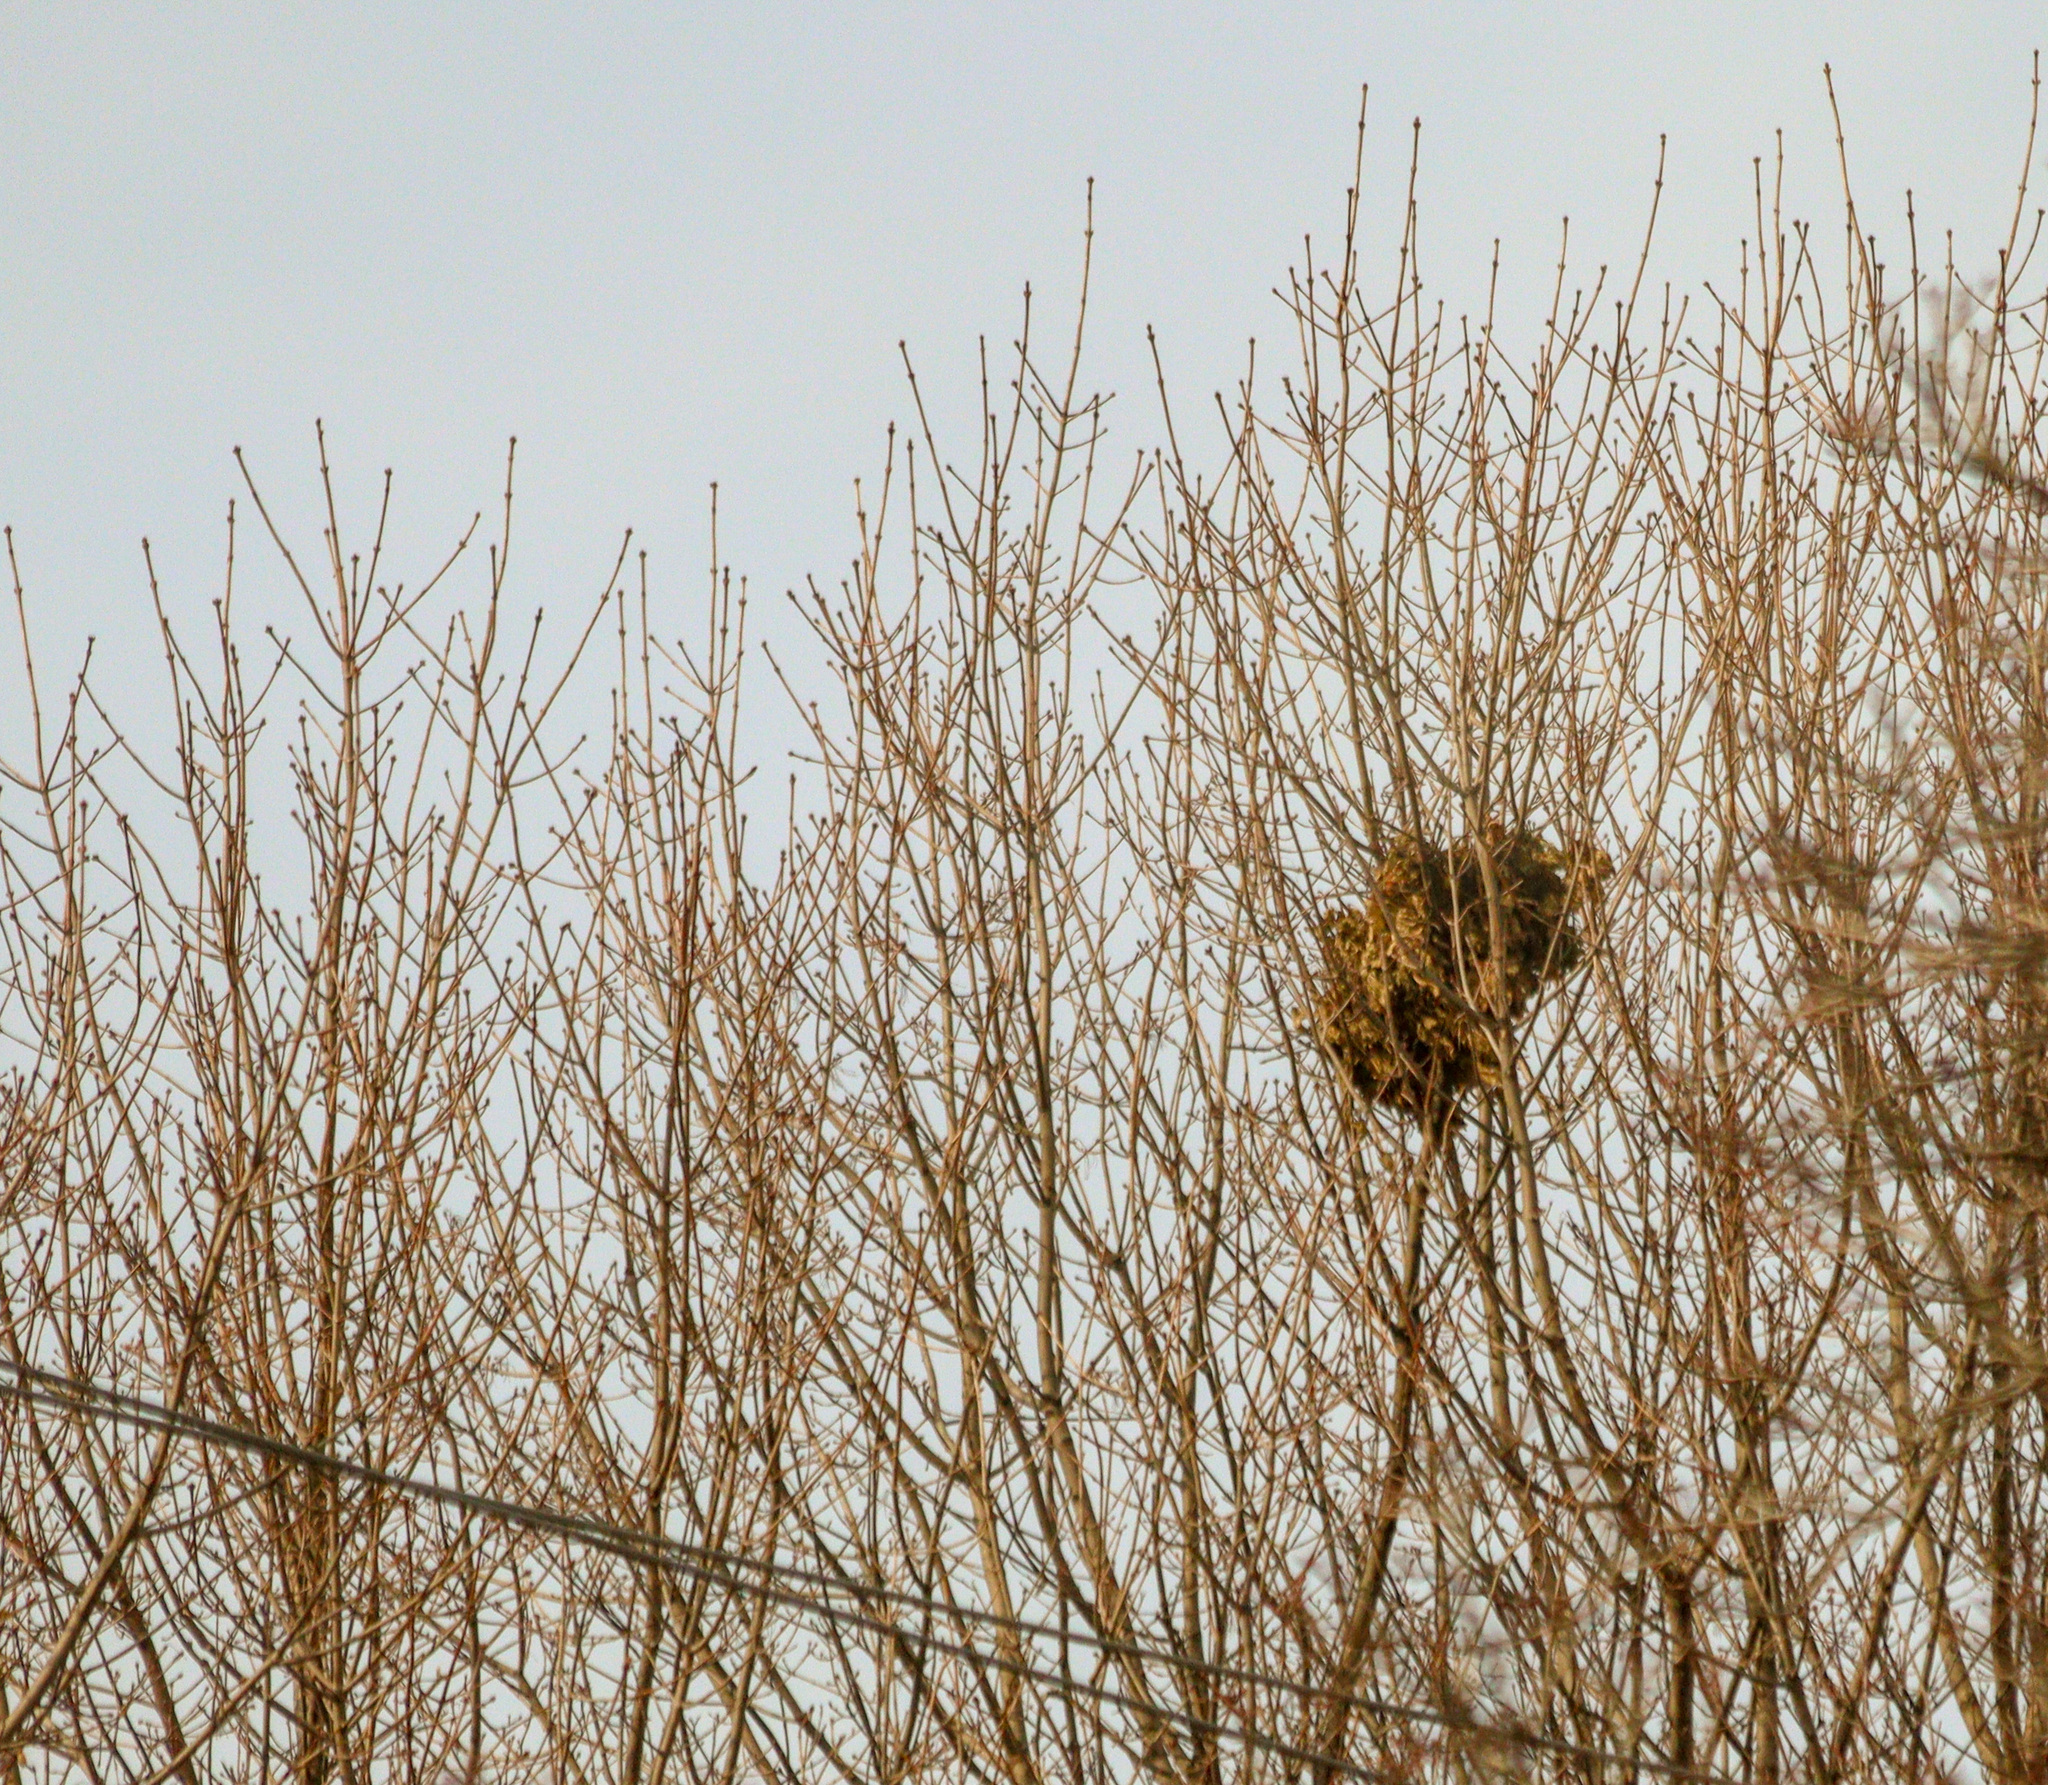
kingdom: Animalia
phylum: Chordata
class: Mammalia
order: Rodentia
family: Sciuridae
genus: Sciurus
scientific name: Sciurus carolinensis
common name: Eastern gray squirrel
